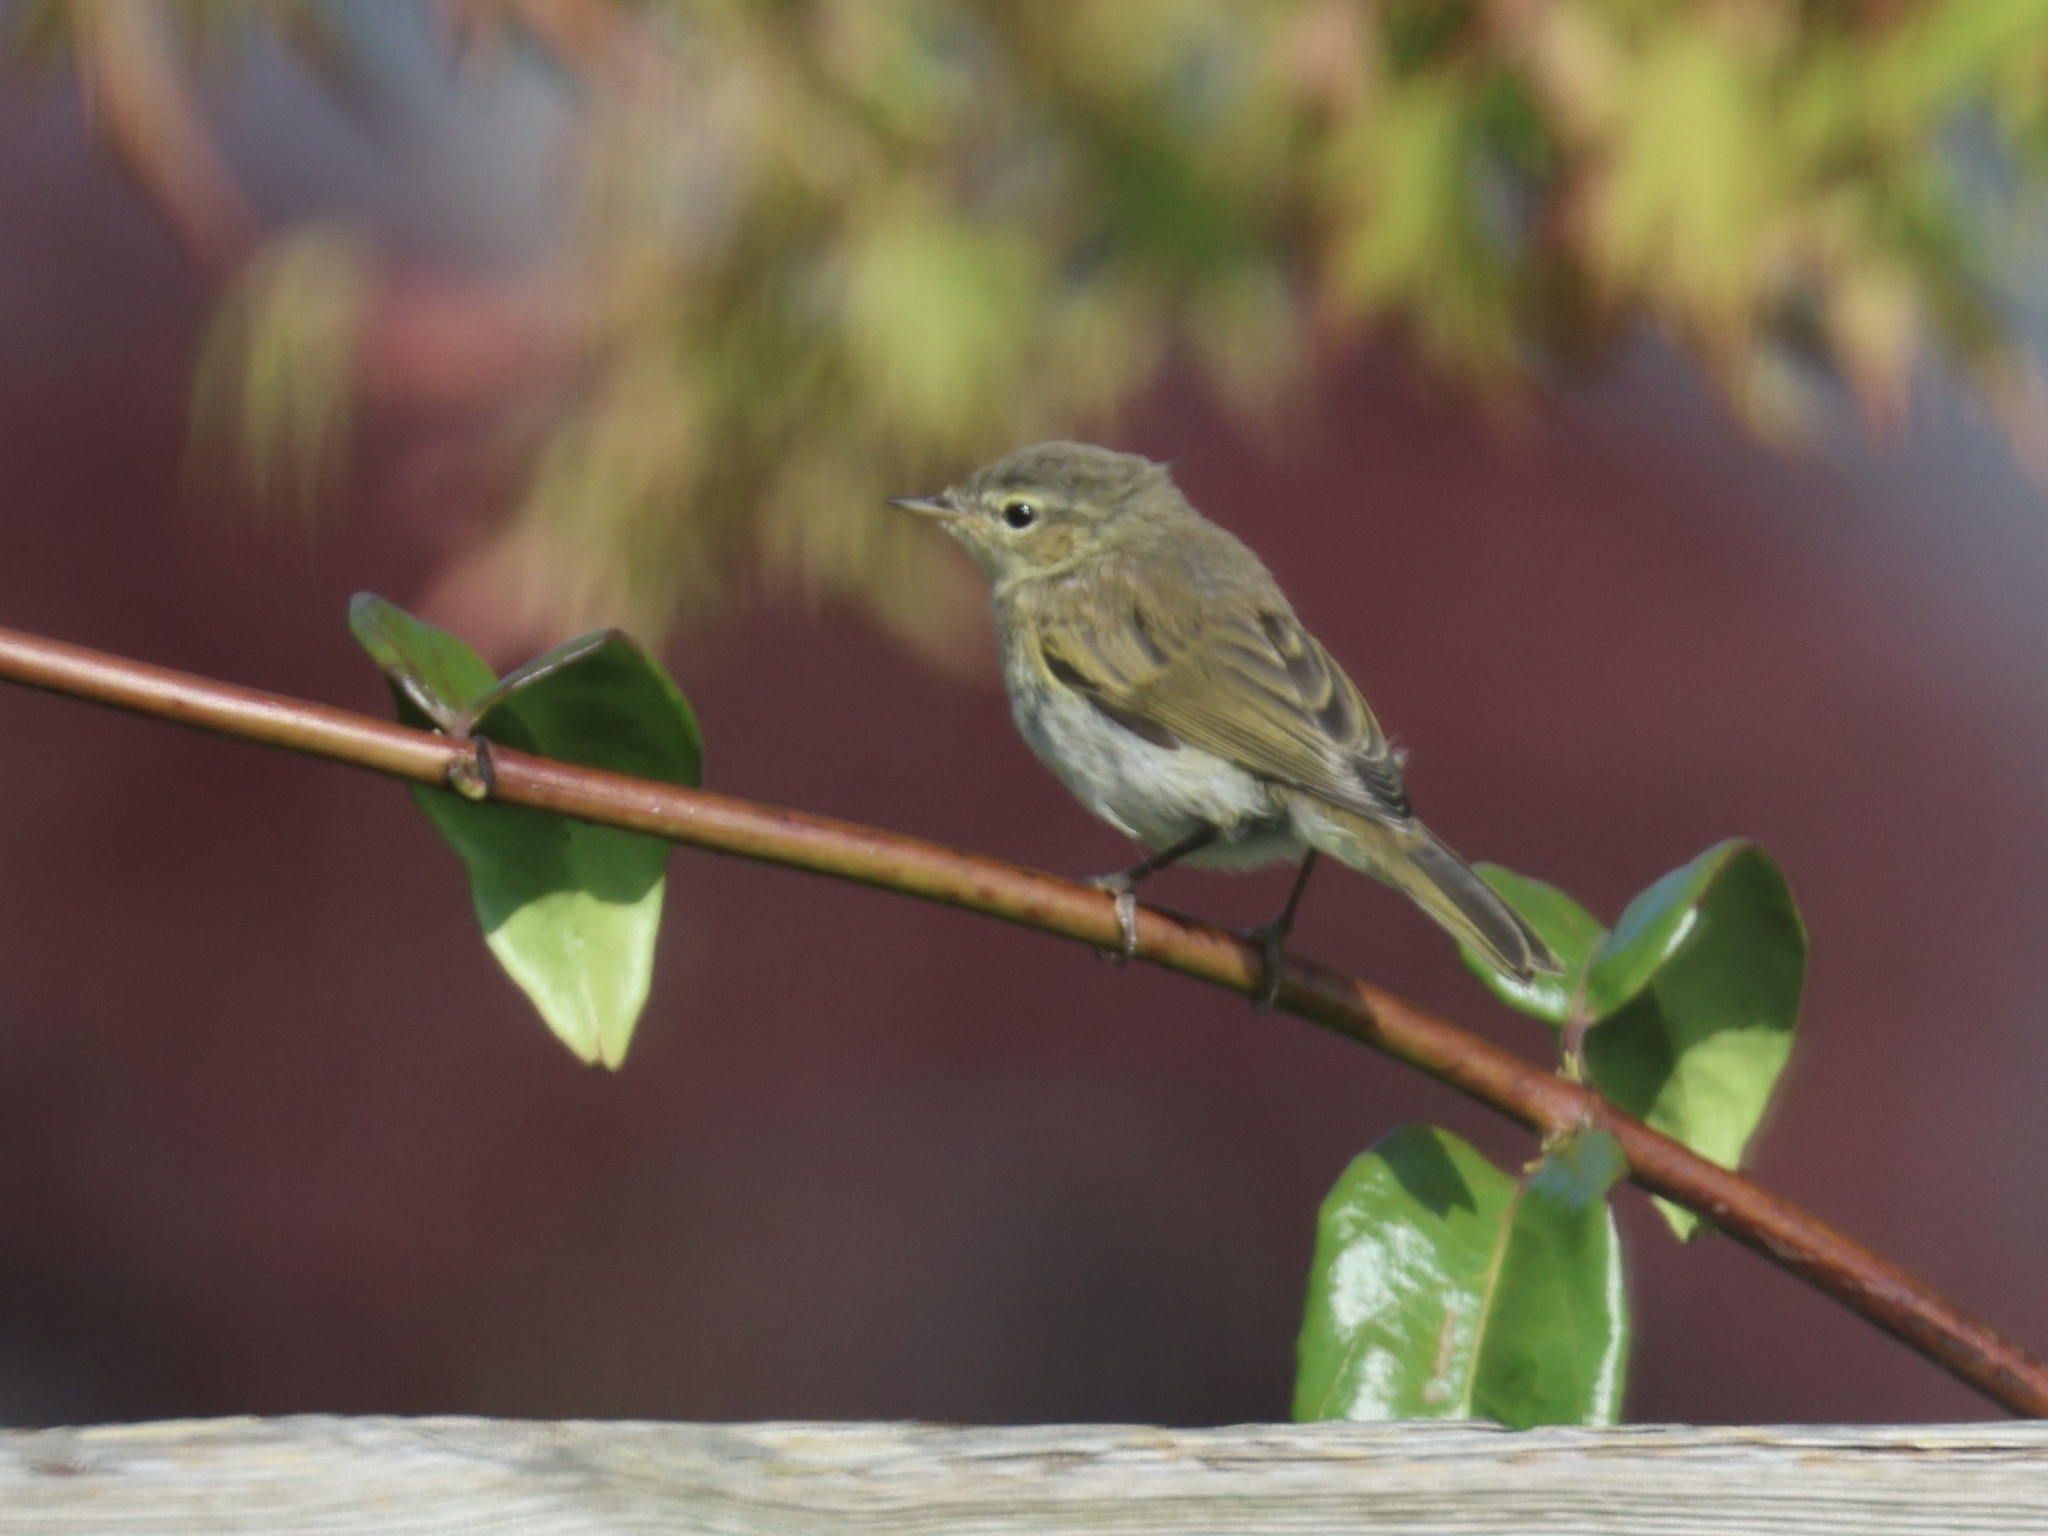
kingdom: Animalia
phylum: Chordata
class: Aves
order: Passeriformes
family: Phylloscopidae
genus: Phylloscopus
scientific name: Phylloscopus collybita
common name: Common chiffchaff
